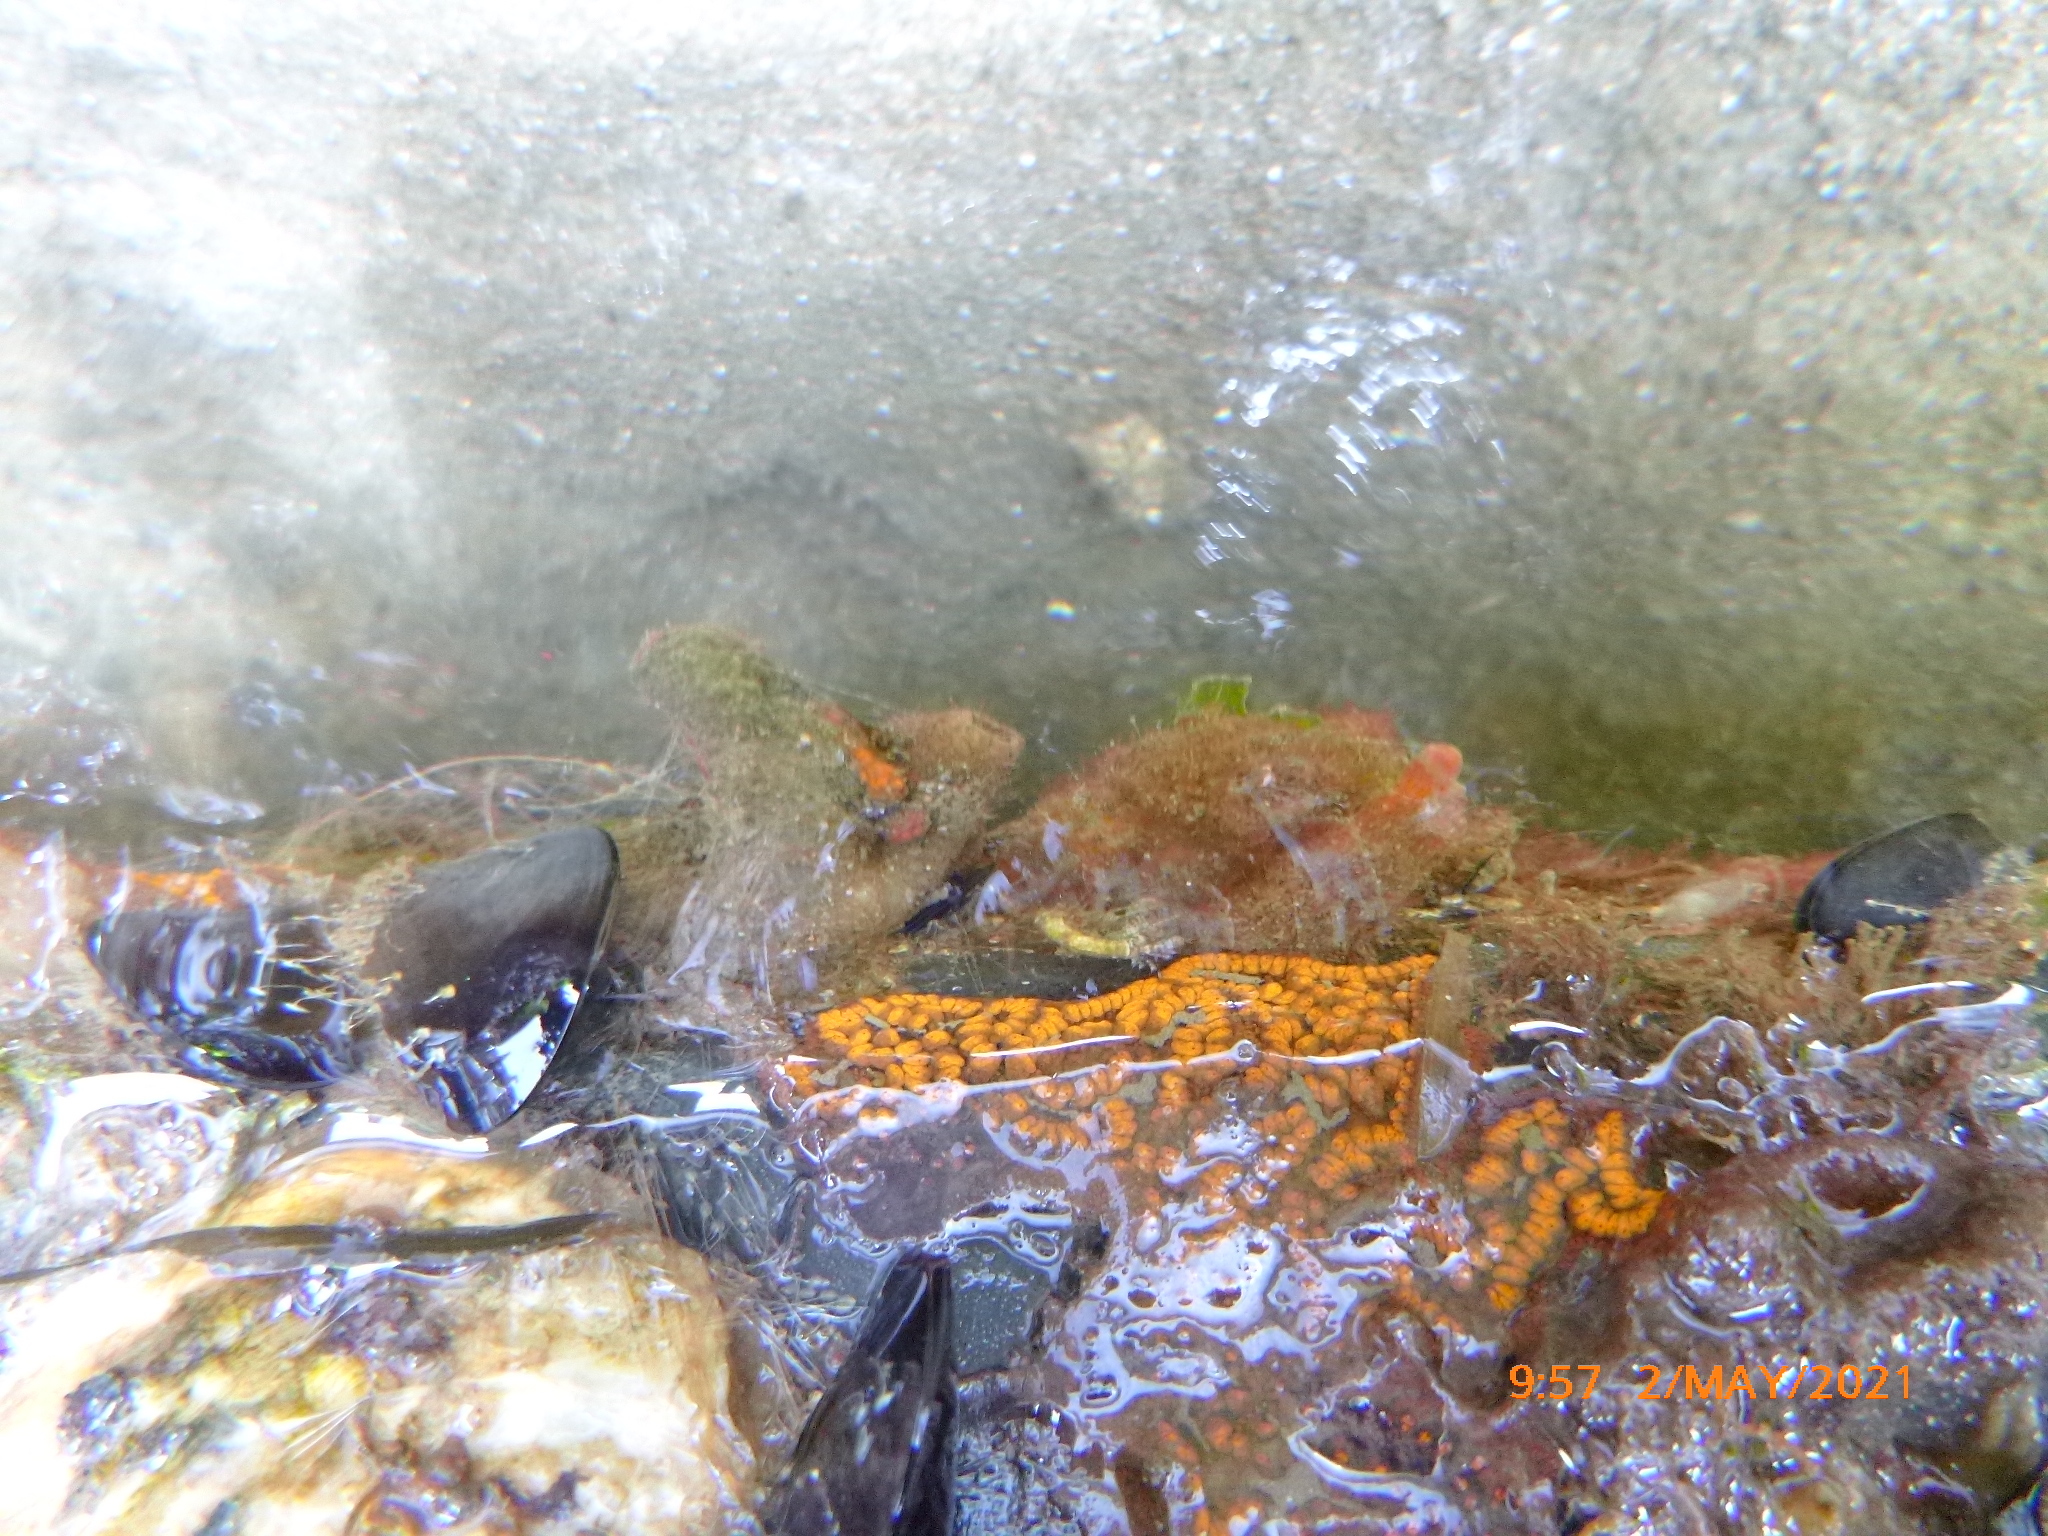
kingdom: Animalia
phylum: Chordata
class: Ascidiacea
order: Stolidobranchia
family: Styelidae
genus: Botrylloides
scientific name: Botrylloides violaceus
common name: Colonial sea squirt
